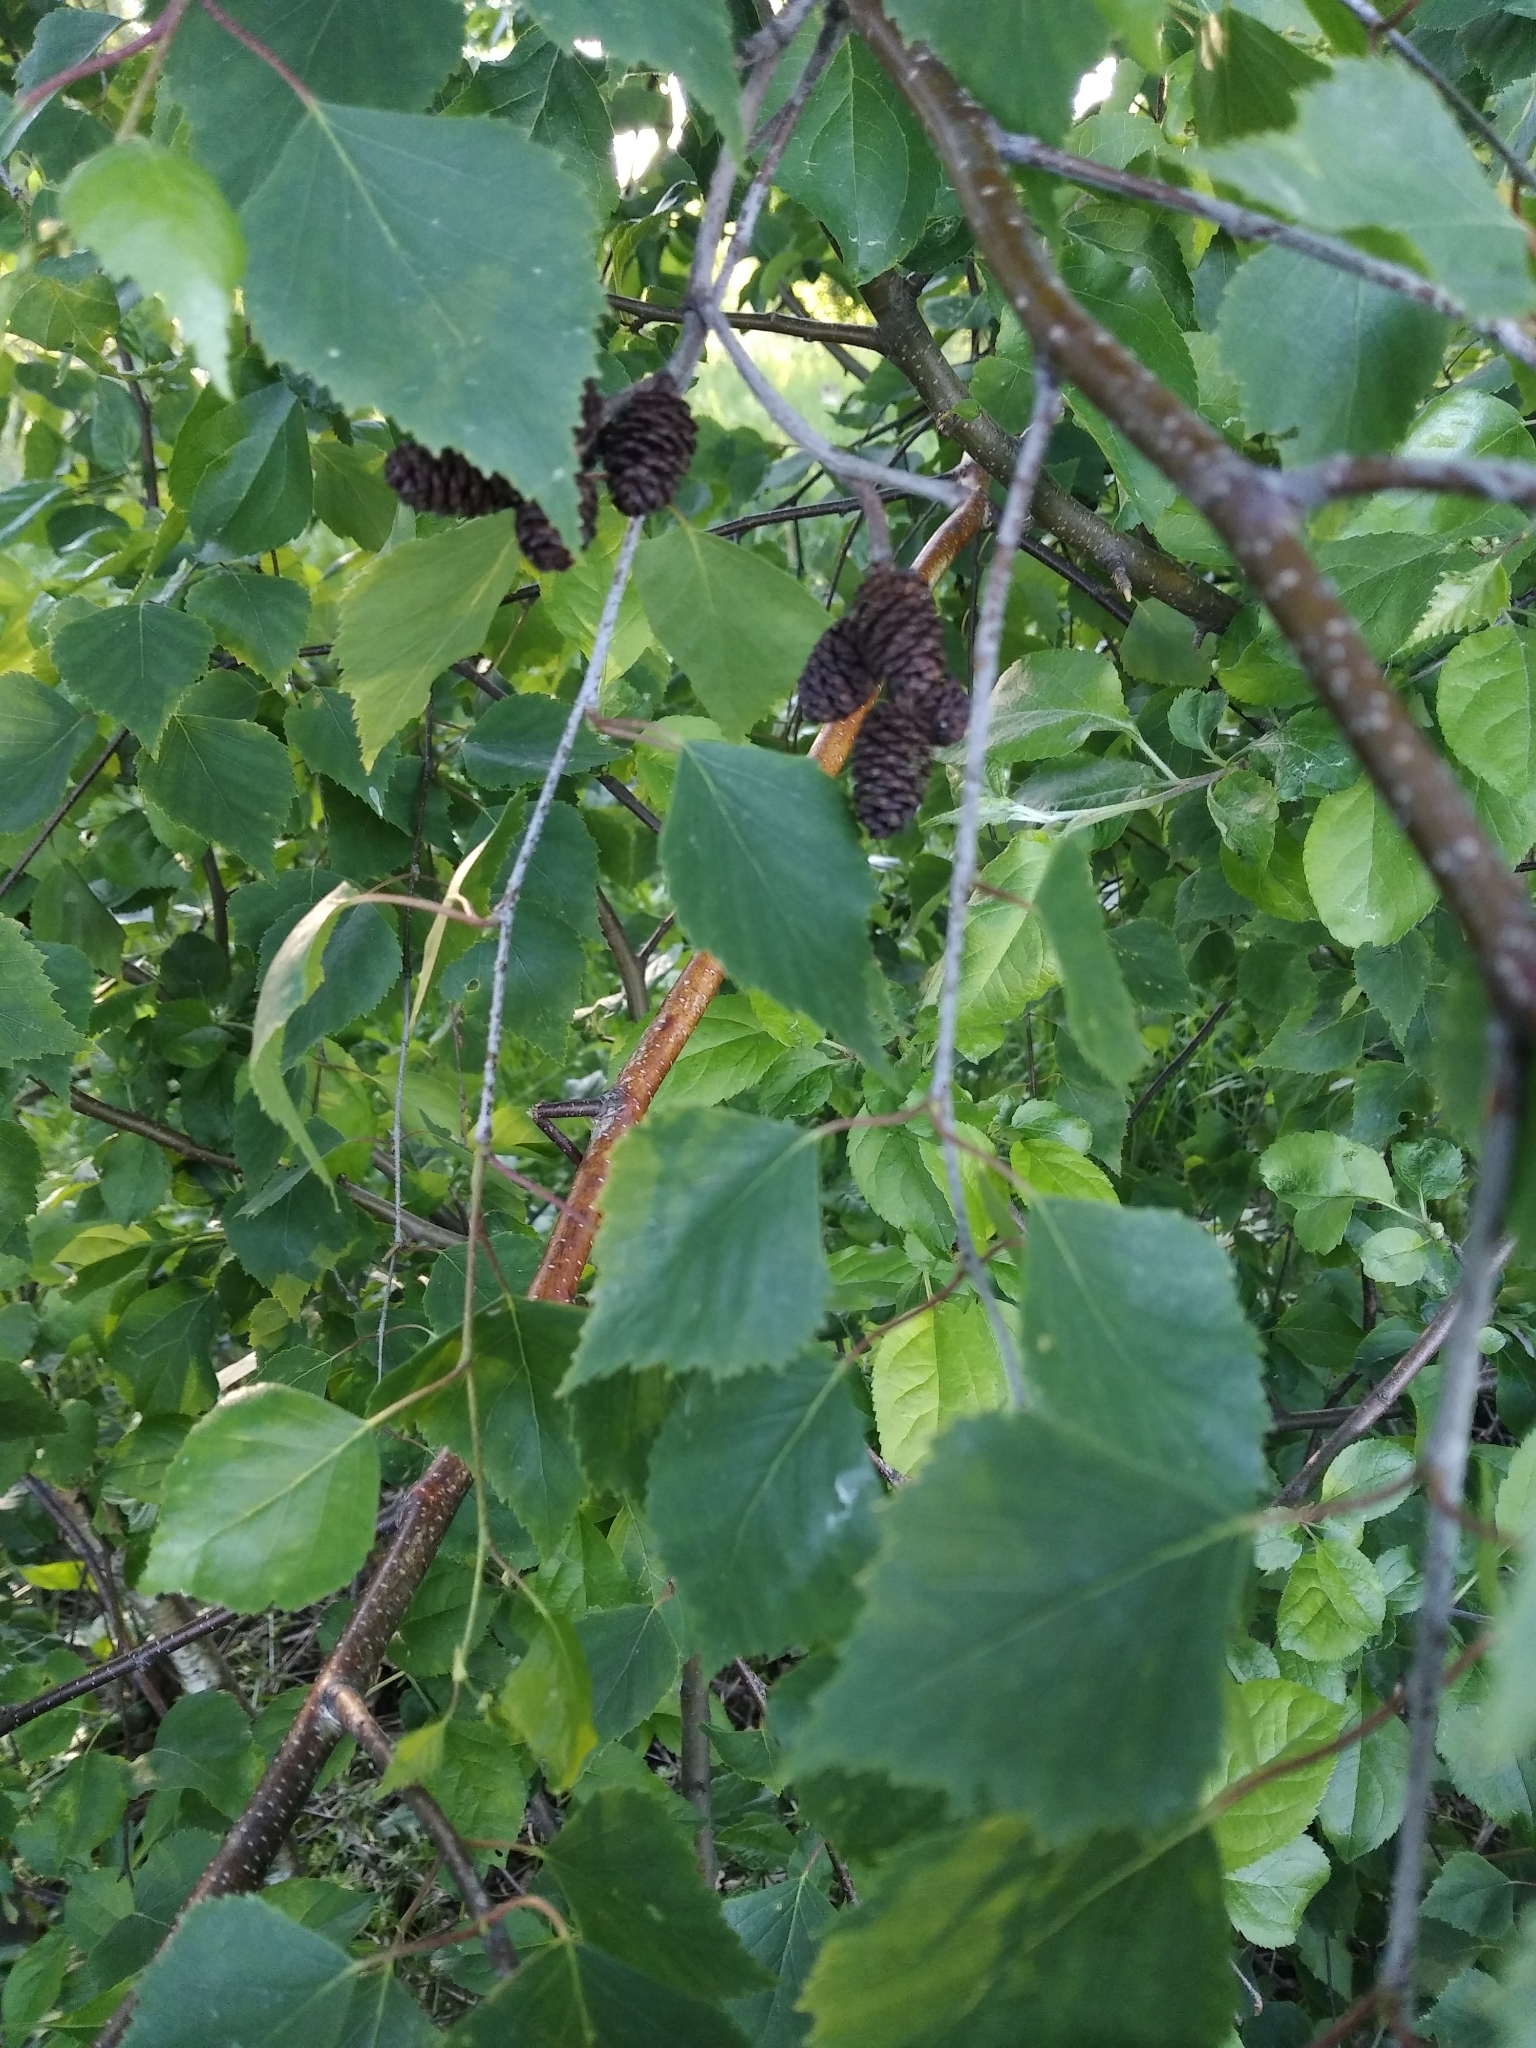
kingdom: Plantae
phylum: Tracheophyta
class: Magnoliopsida
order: Fagales
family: Betulaceae
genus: Betula
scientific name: Betula pendula
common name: Silver birch
